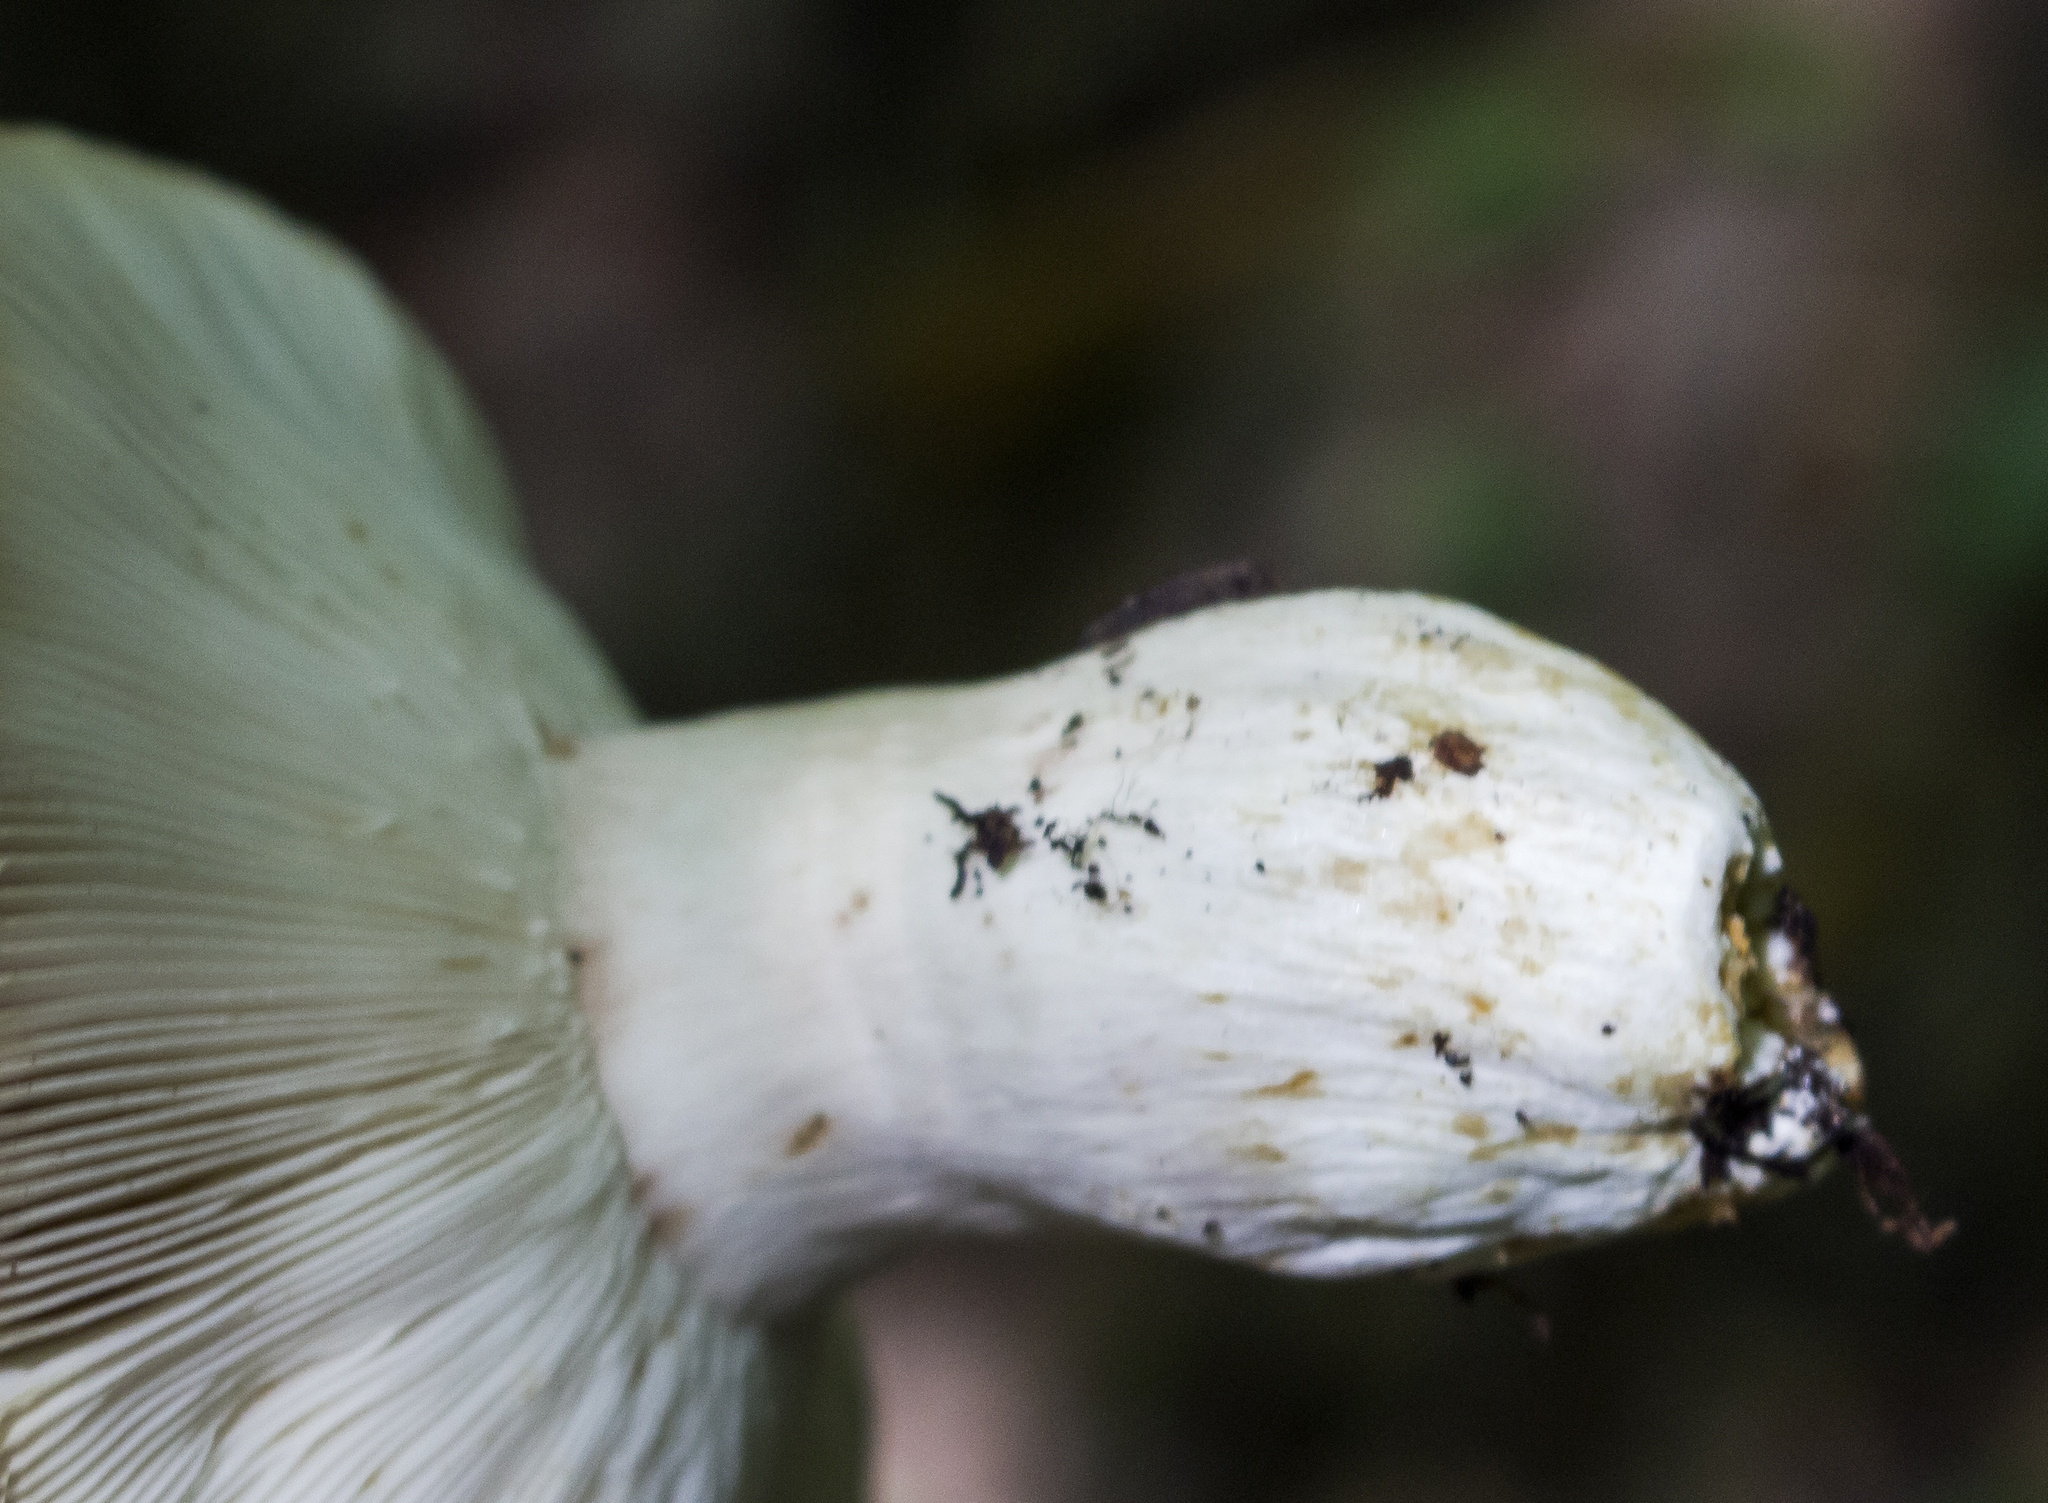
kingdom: Fungi
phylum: Basidiomycota
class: Agaricomycetes
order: Russulales
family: Russulaceae
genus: Russula
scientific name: Russula cyanoxantha
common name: Charcoal burner
